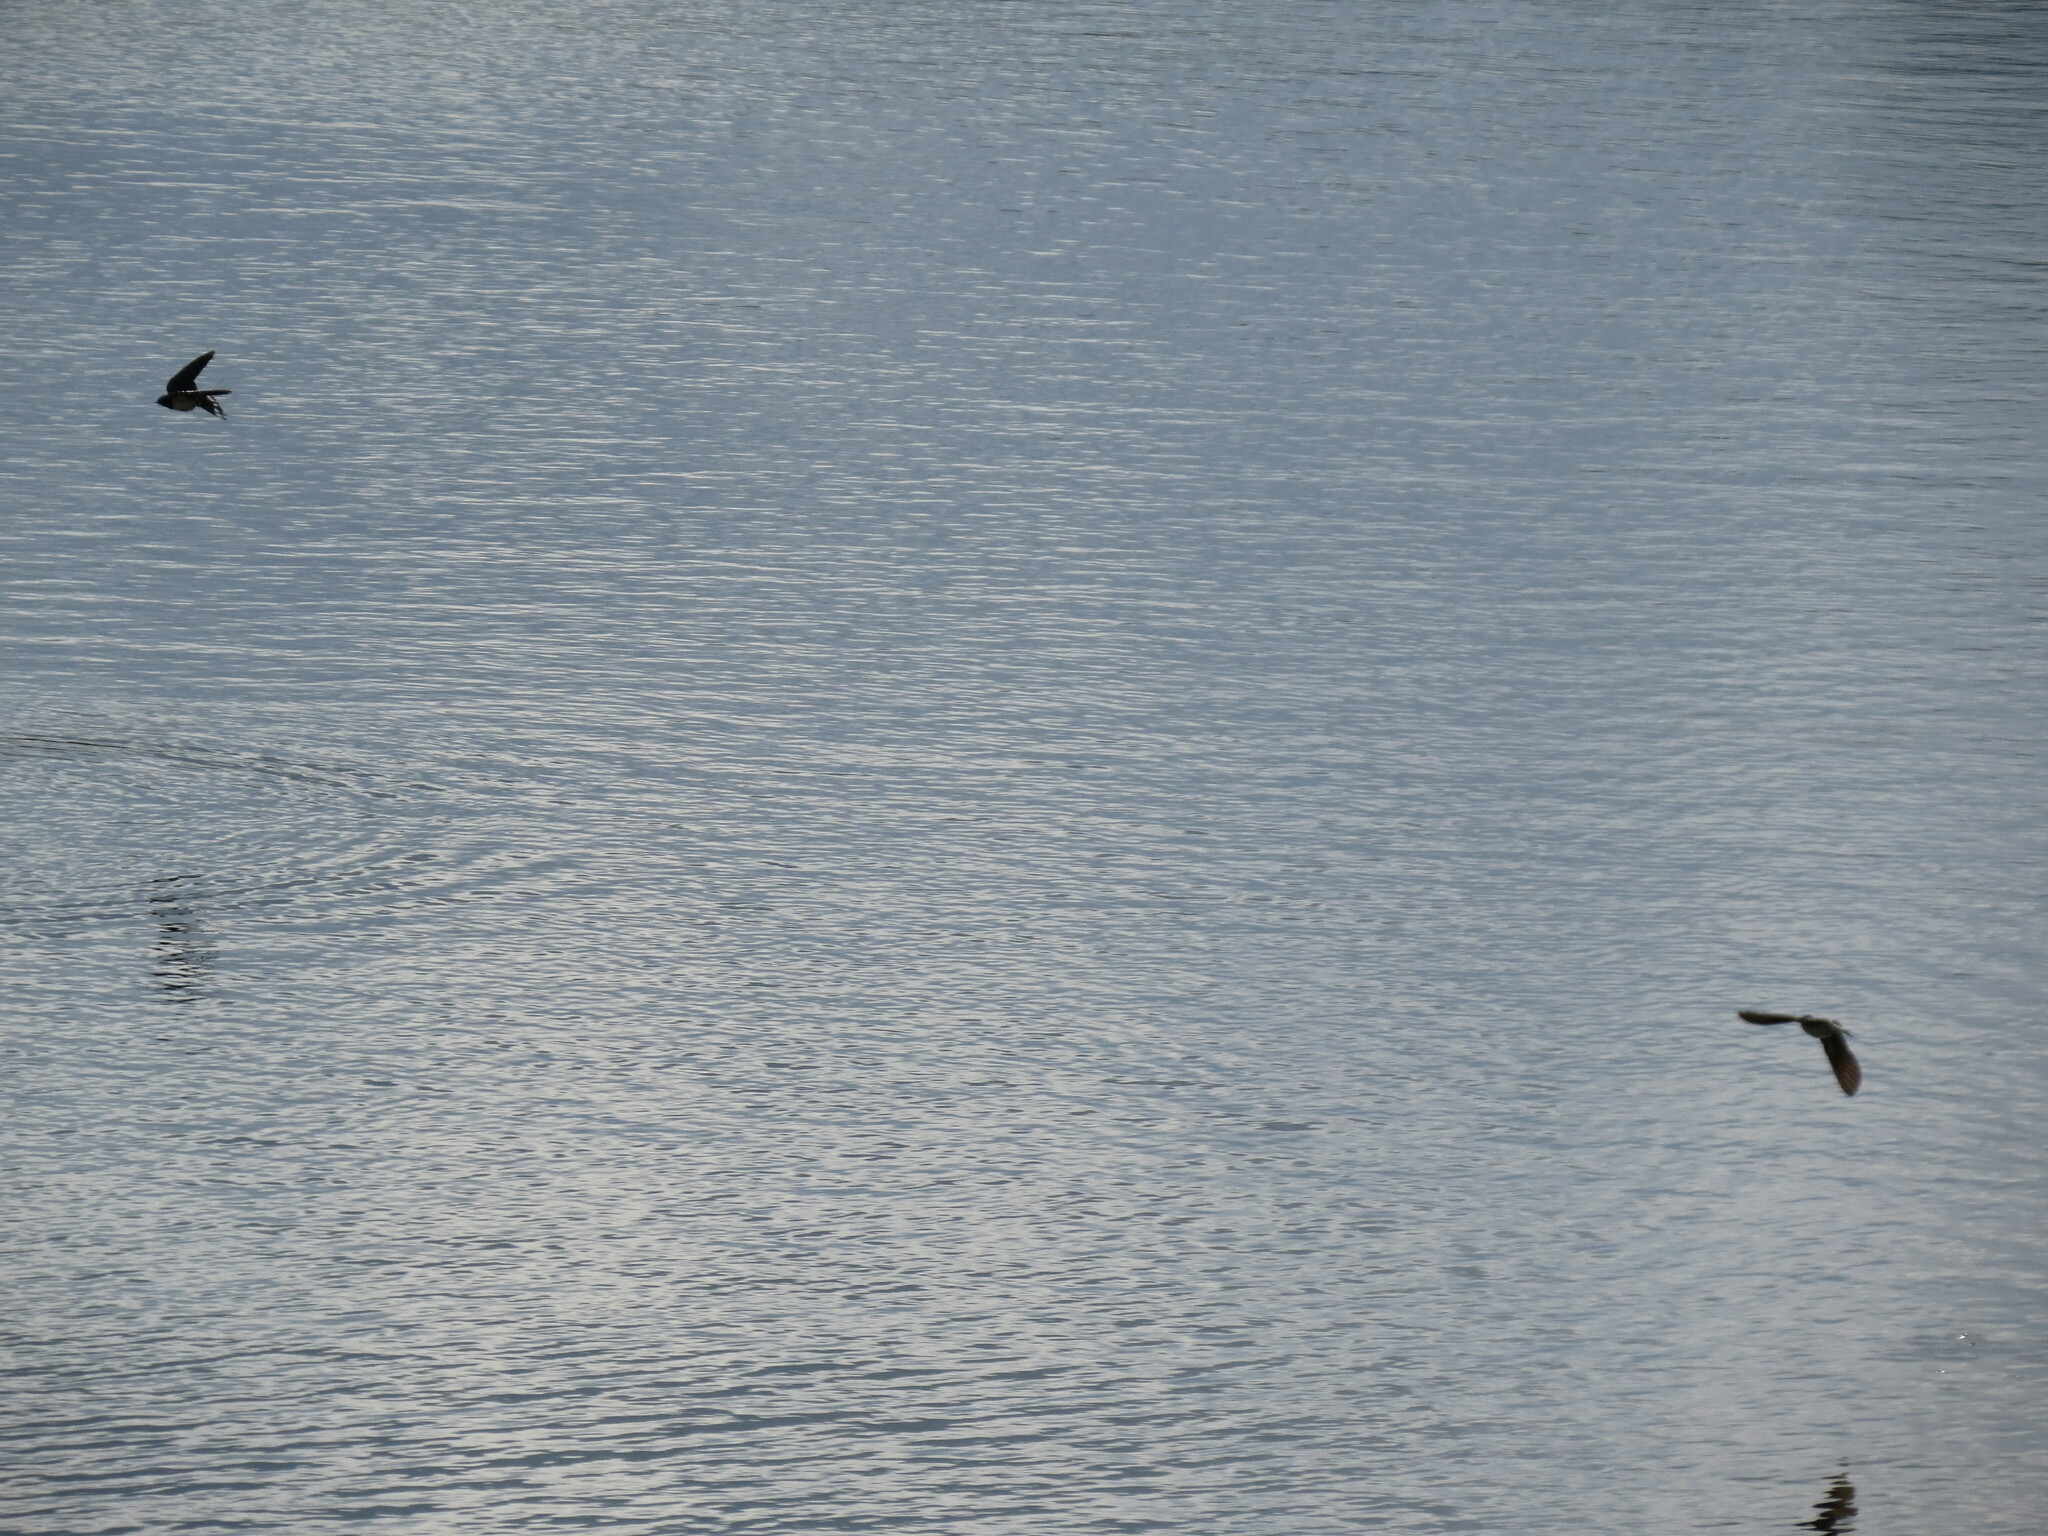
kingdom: Animalia
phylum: Chordata
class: Aves
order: Passeriformes
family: Hirundinidae
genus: Hirundo
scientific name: Hirundo rustica
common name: Barn swallow
